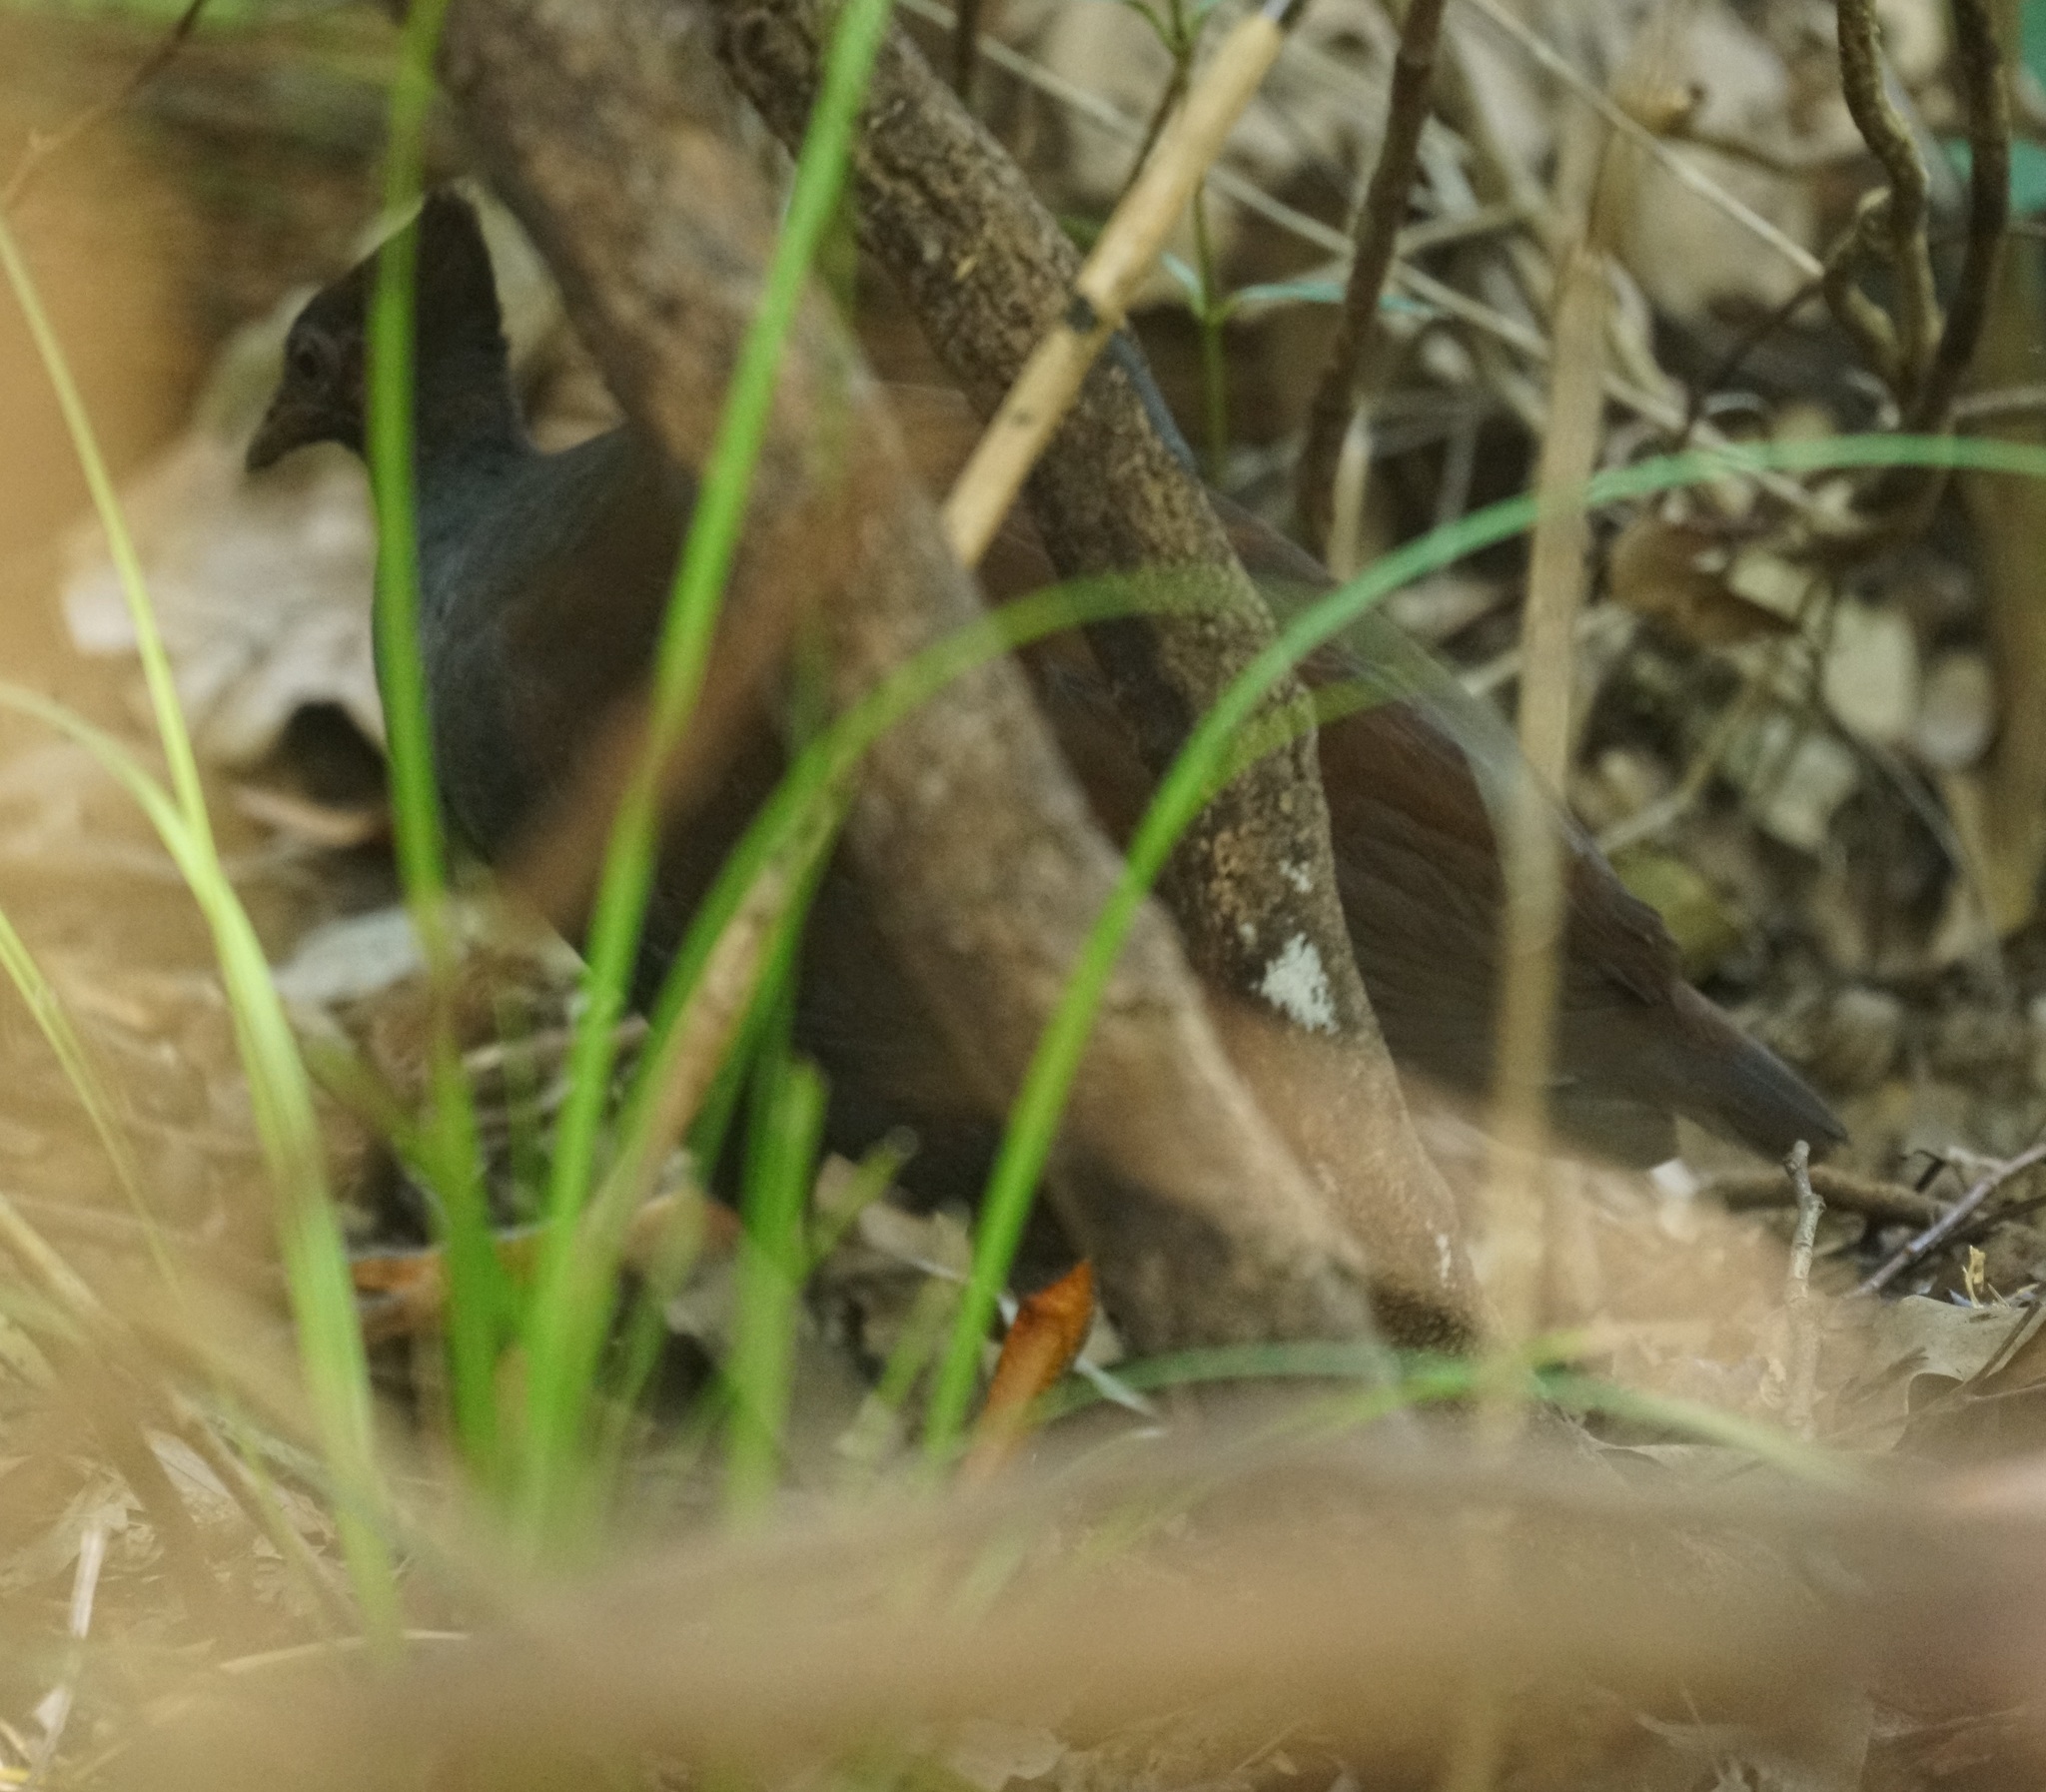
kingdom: Animalia
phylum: Chordata
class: Aves
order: Galliformes
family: Megapodiidae
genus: Megapodius
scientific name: Megapodius reinwardt
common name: Orange-footed scrubfowl
